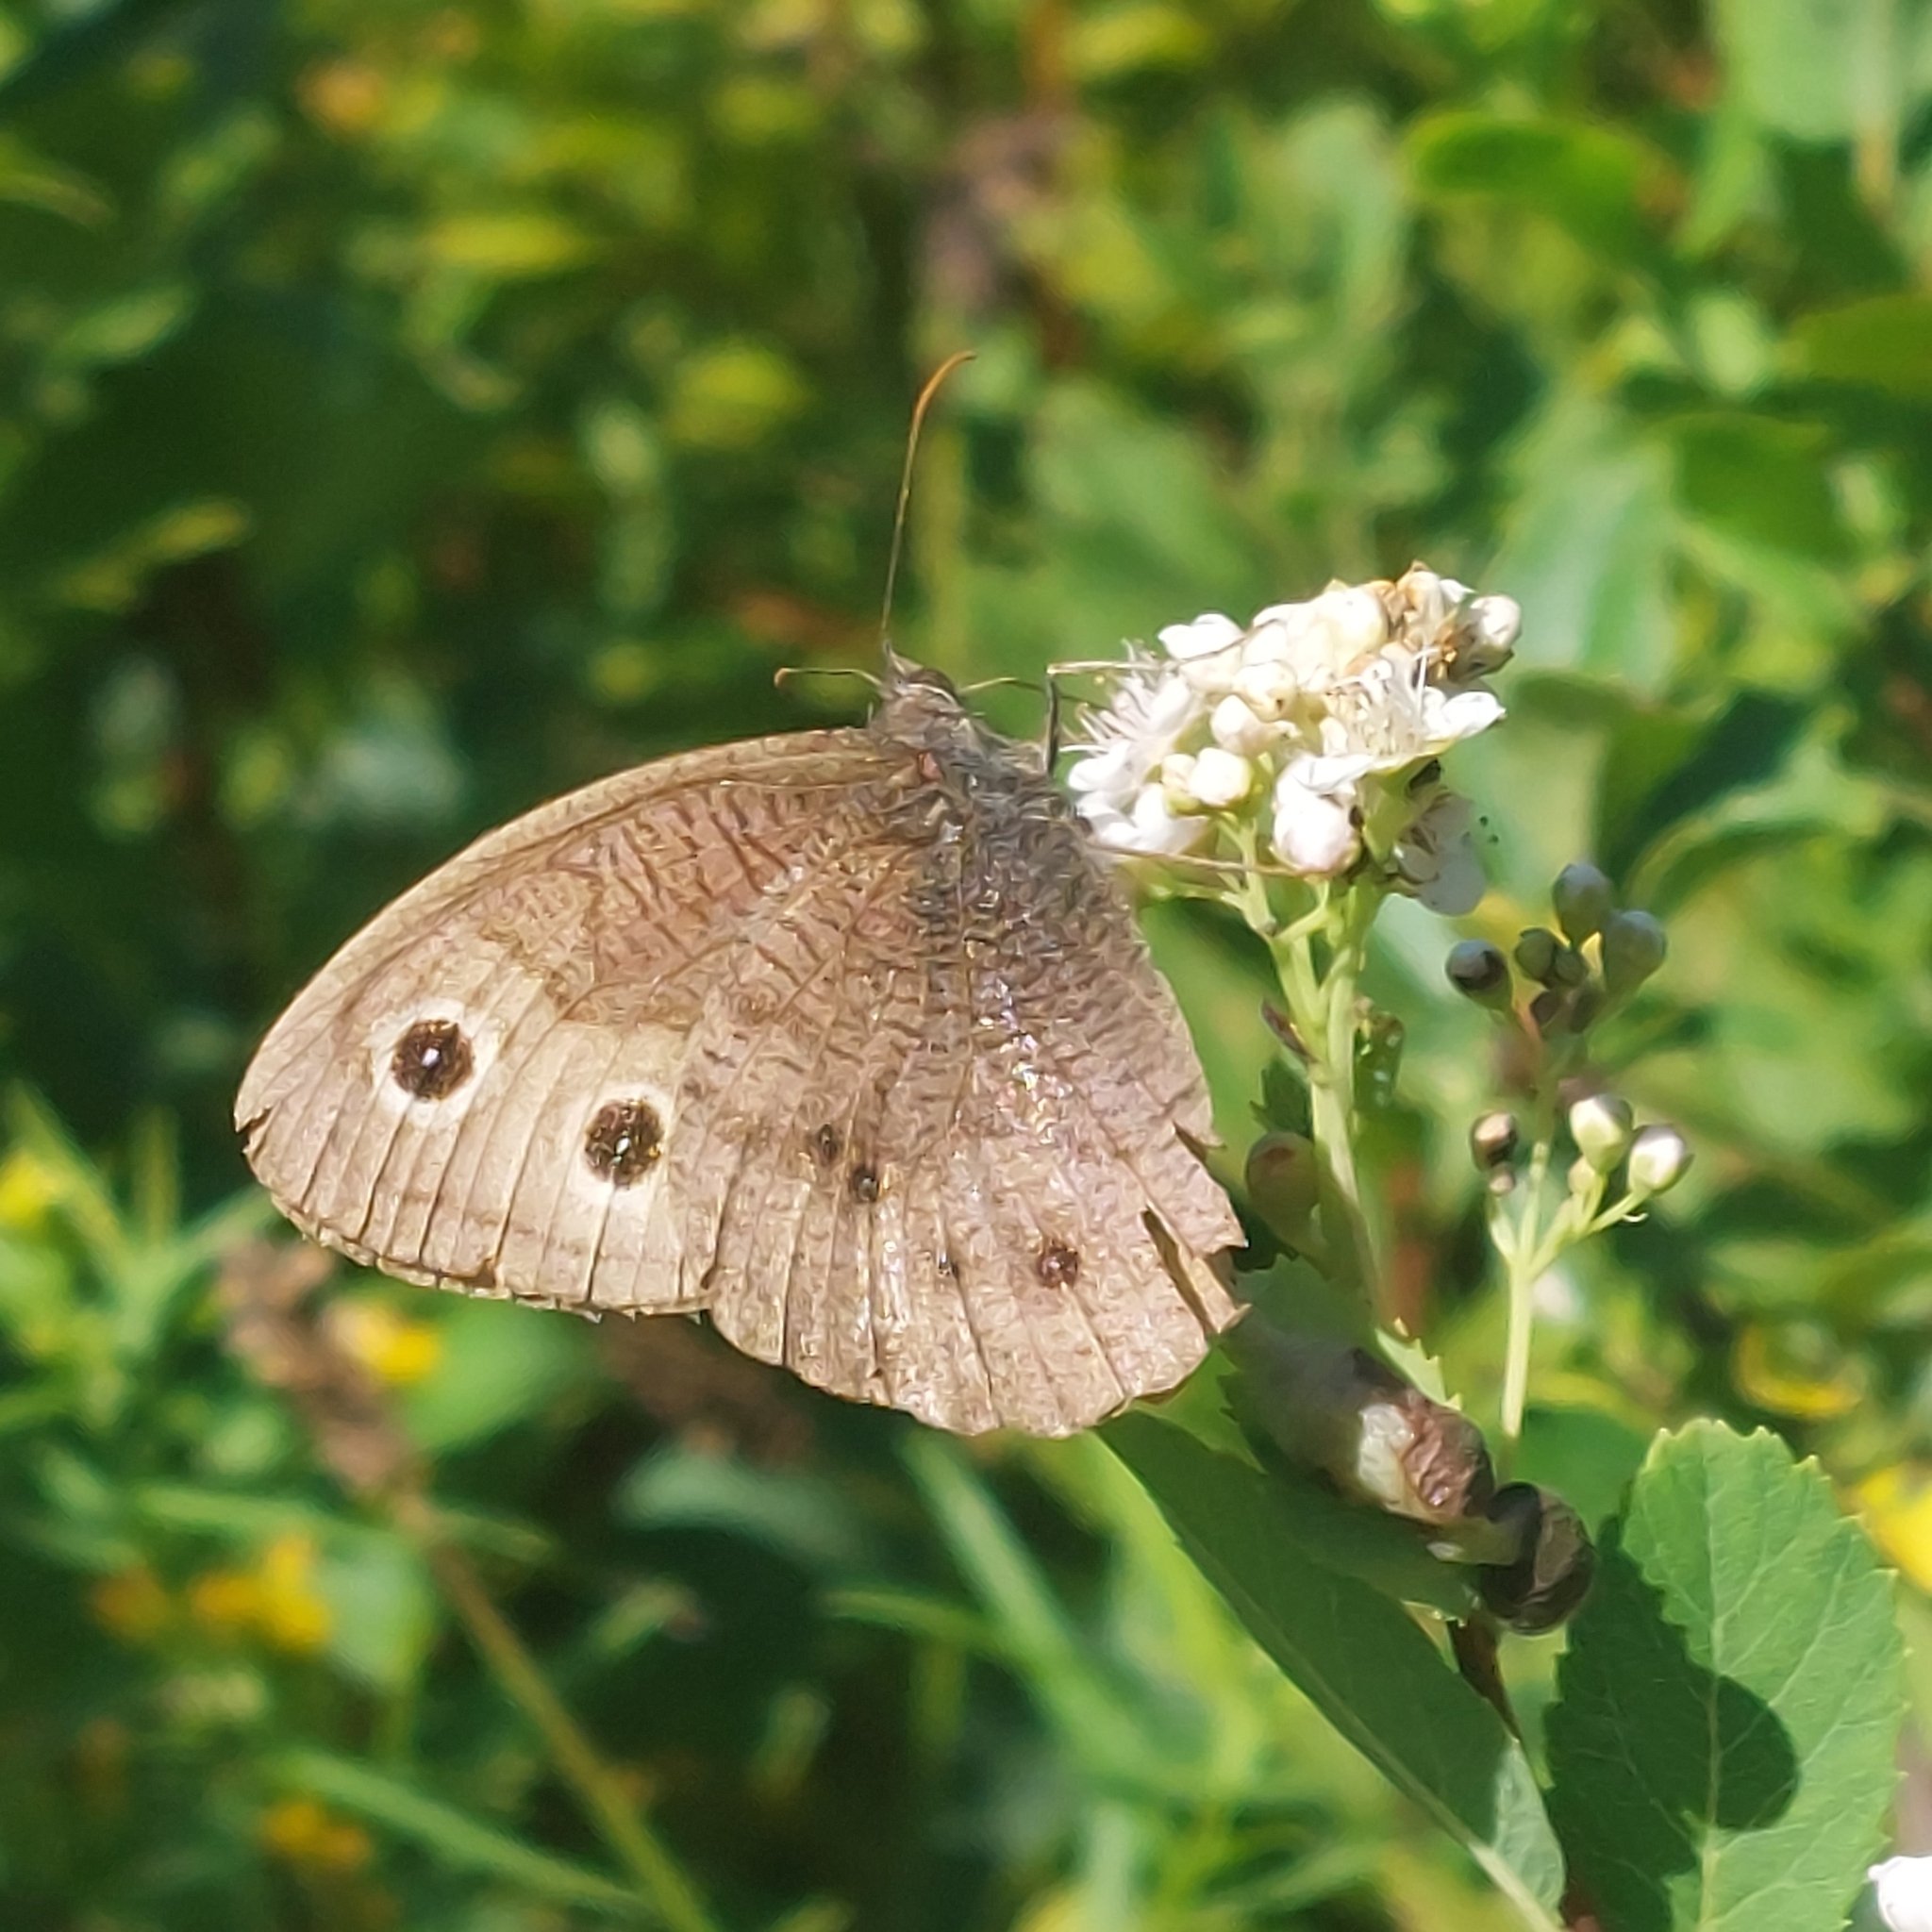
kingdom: Animalia
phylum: Arthropoda
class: Insecta
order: Lepidoptera
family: Nymphalidae
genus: Cercyonis
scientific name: Cercyonis pegala
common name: Common wood-nymph
